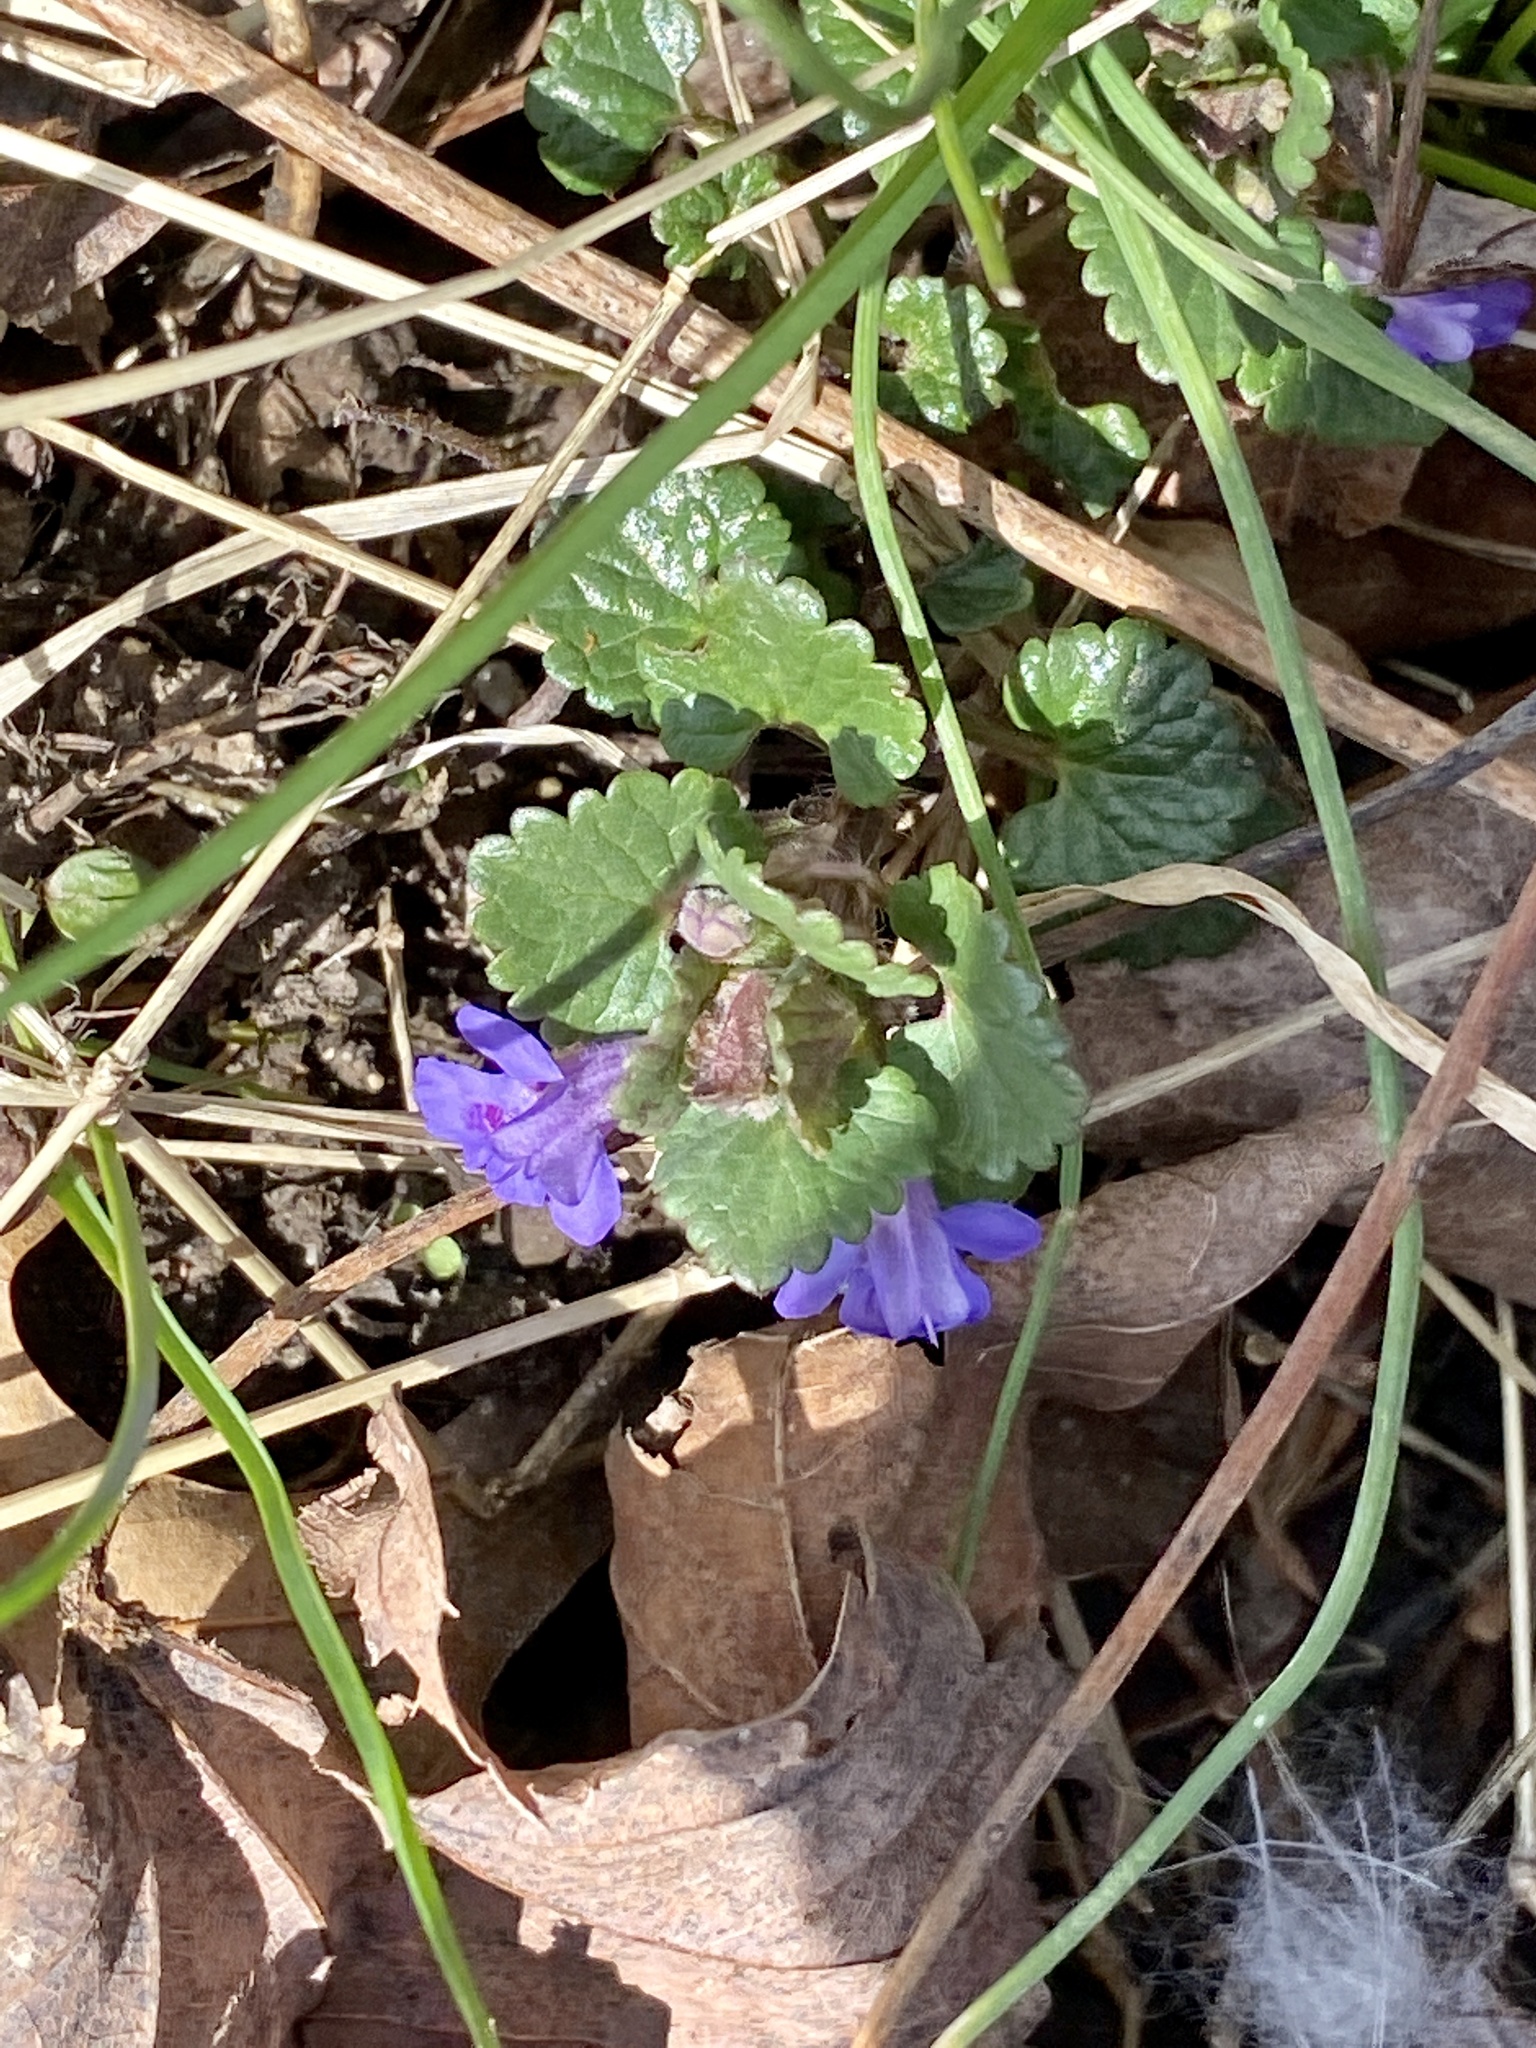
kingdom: Plantae
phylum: Tracheophyta
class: Magnoliopsida
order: Lamiales
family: Lamiaceae
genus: Glechoma
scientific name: Glechoma hederacea
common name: Ground ivy
